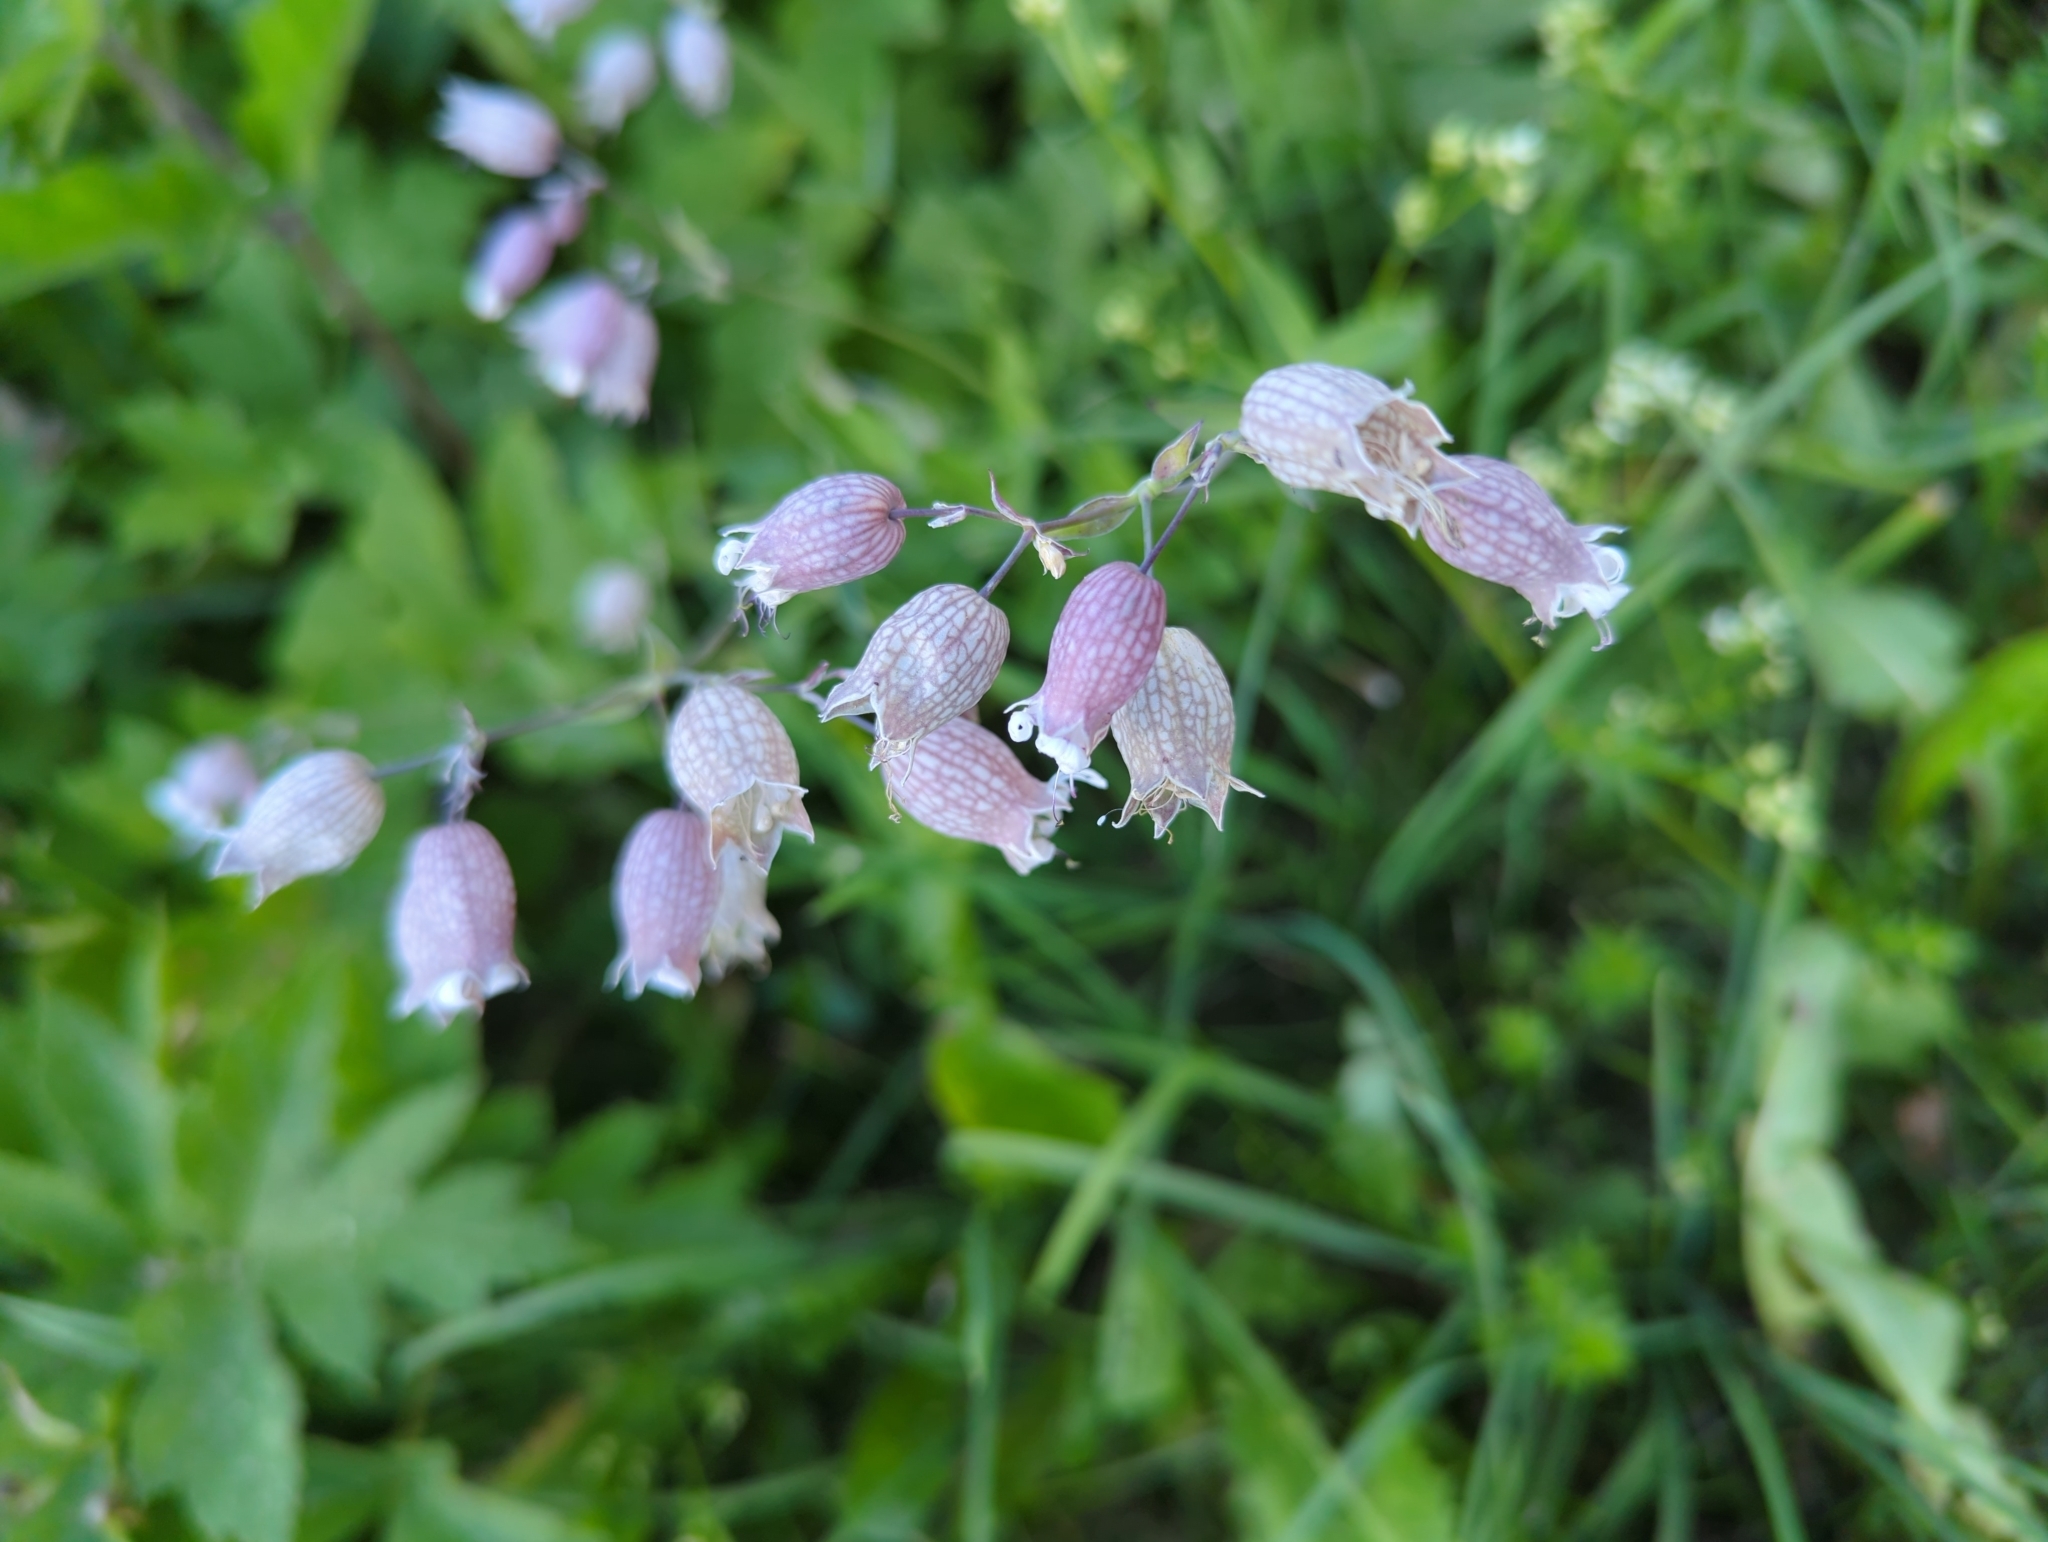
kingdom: Plantae
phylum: Tracheophyta
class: Magnoliopsida
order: Caryophyllales
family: Caryophyllaceae
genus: Silene
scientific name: Silene vulgaris
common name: Bladder campion
